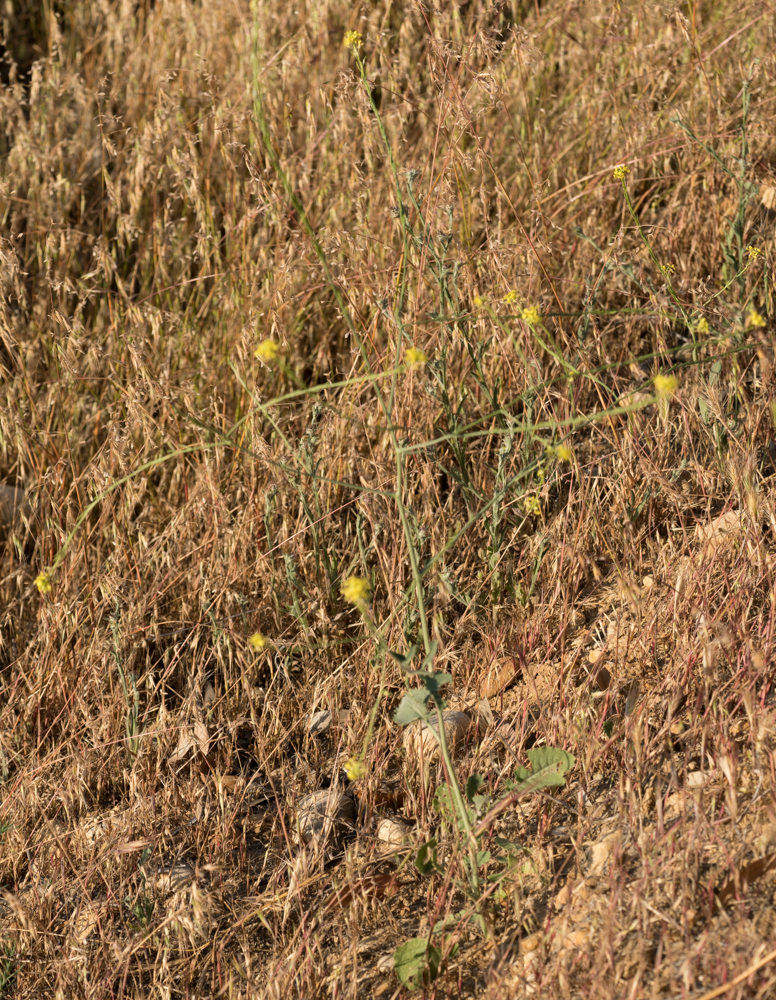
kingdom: Plantae
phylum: Tracheophyta
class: Magnoliopsida
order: Brassicales
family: Brassicaceae
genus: Hirschfeldia
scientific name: Hirschfeldia incana
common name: Hoary mustard
